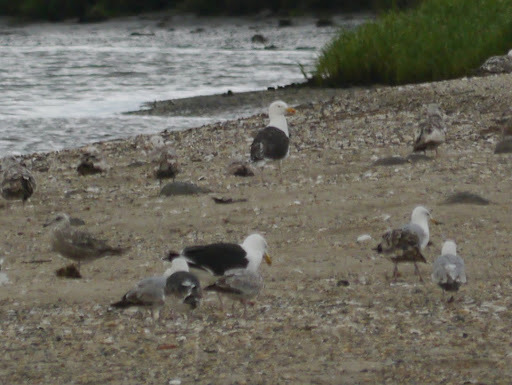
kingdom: Animalia
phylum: Chordata
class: Aves
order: Charadriiformes
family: Laridae
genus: Larus
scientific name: Larus marinus
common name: Great black-backed gull
